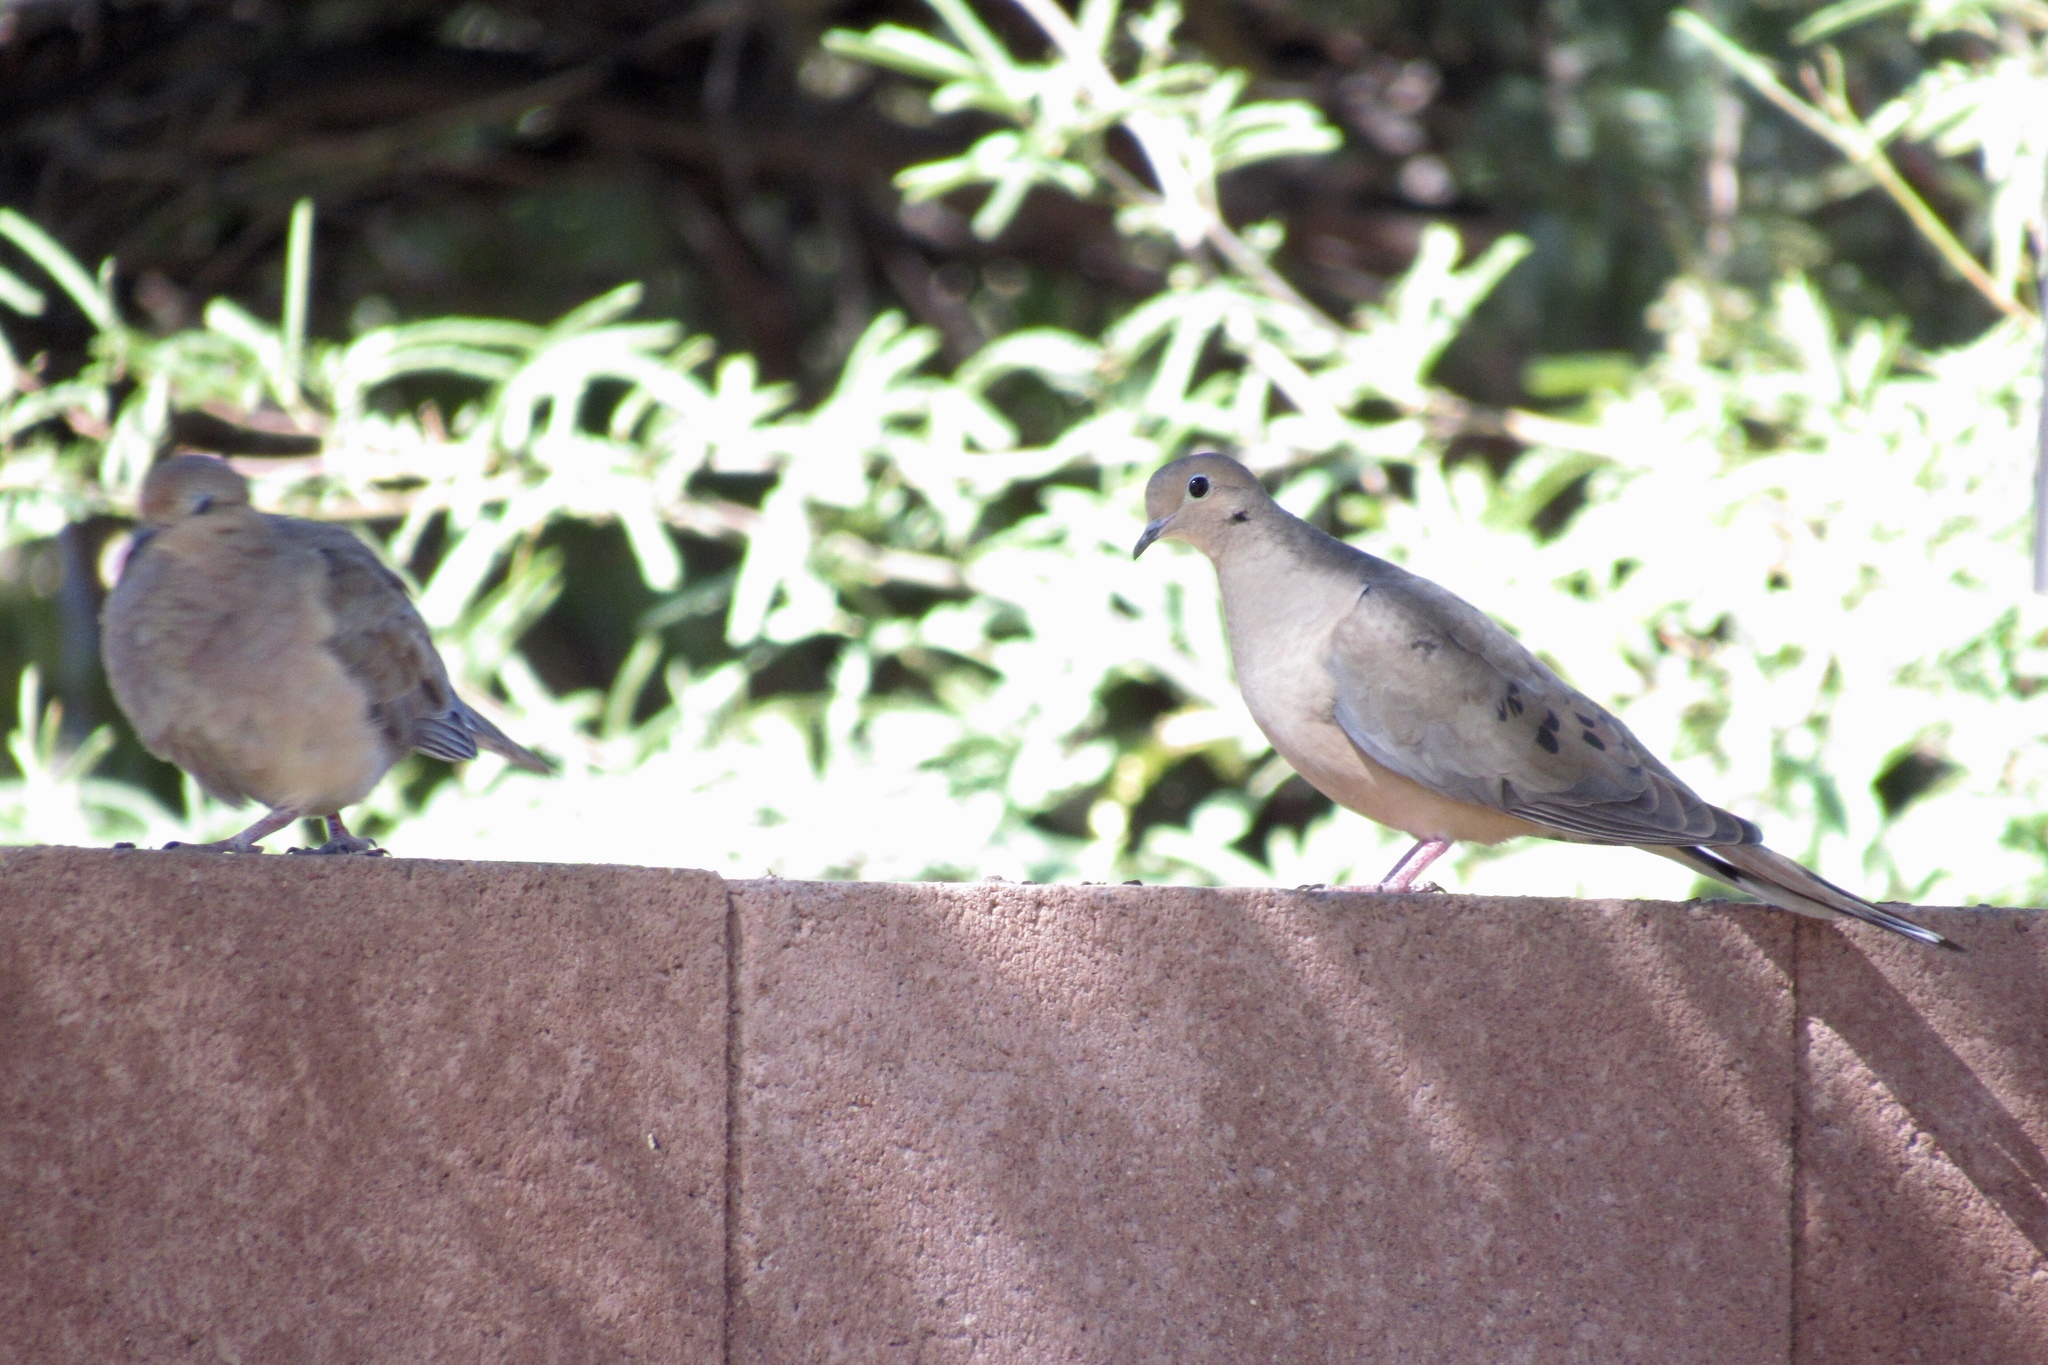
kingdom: Animalia
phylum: Chordata
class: Aves
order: Columbiformes
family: Columbidae
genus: Zenaida
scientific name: Zenaida macroura
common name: Mourning dove
